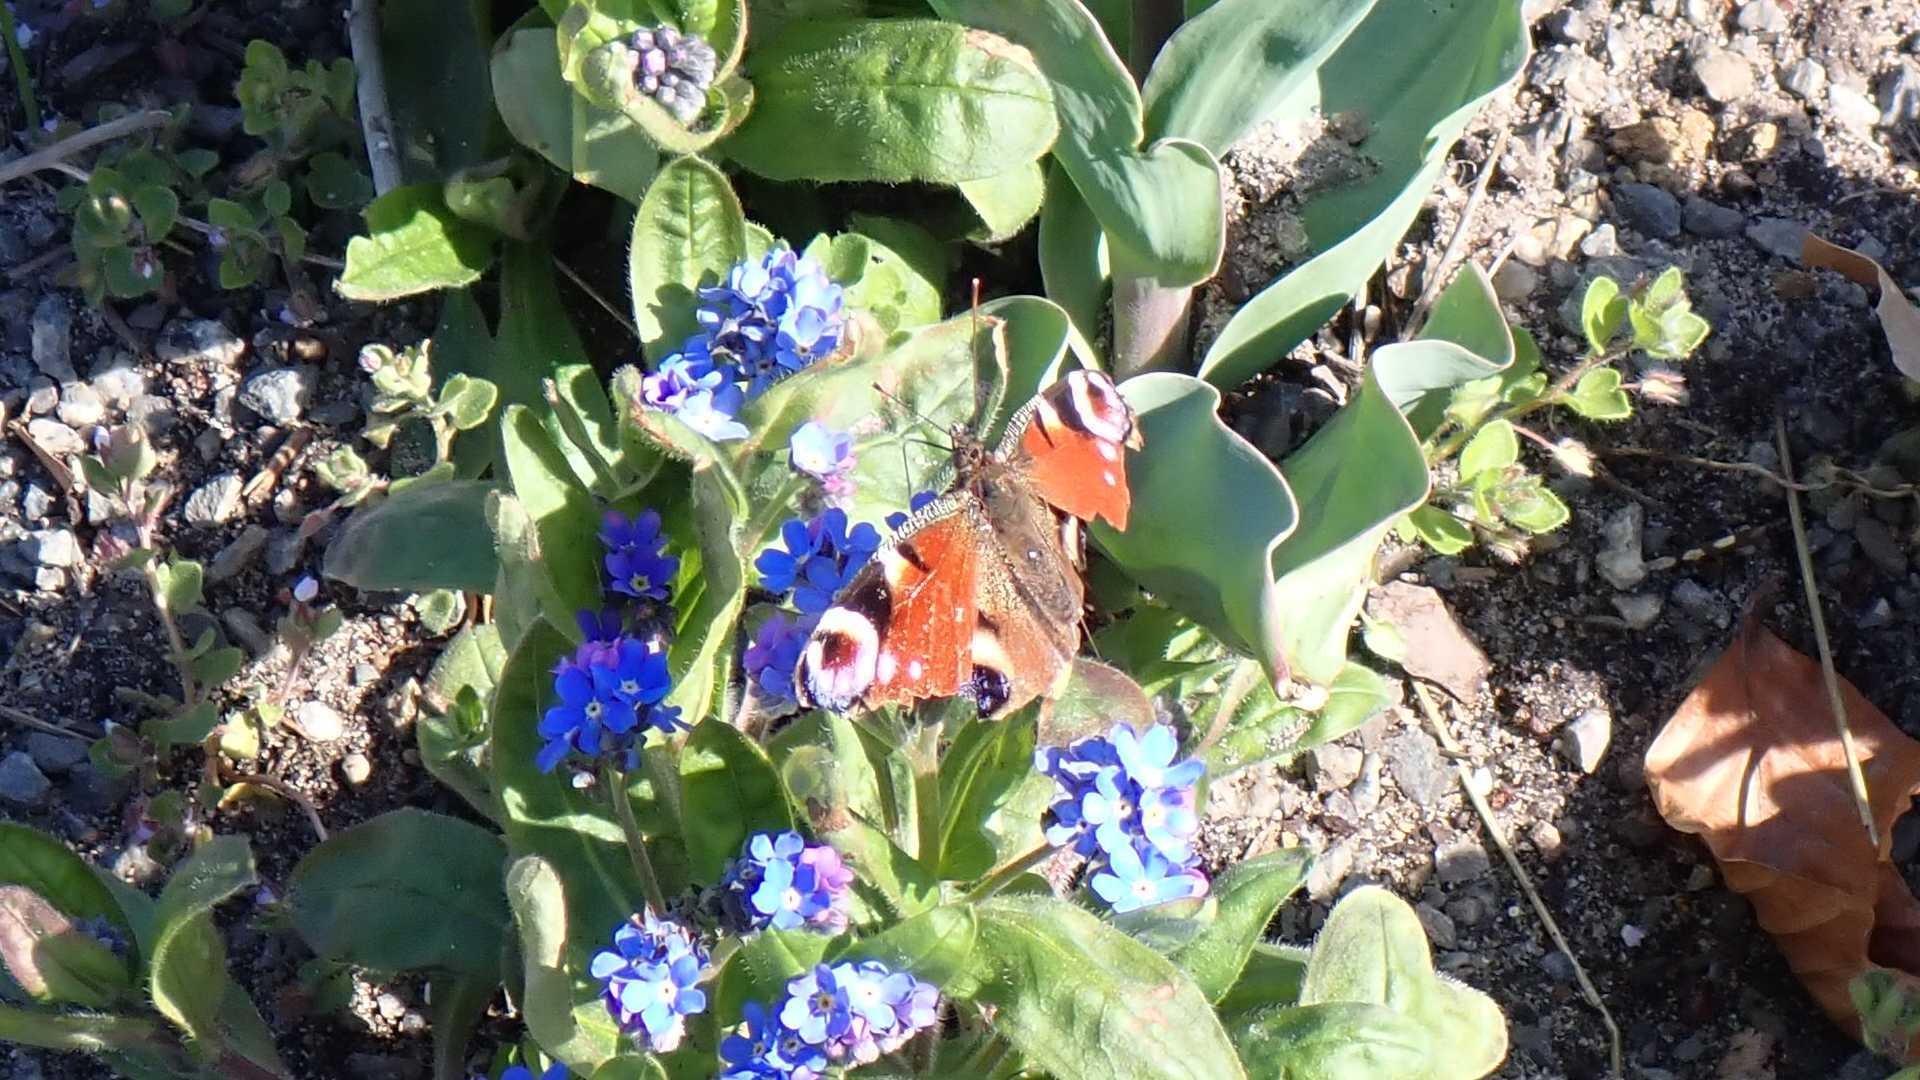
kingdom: Animalia
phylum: Arthropoda
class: Insecta
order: Lepidoptera
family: Nymphalidae
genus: Aglais
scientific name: Aglais io
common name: Peacock
